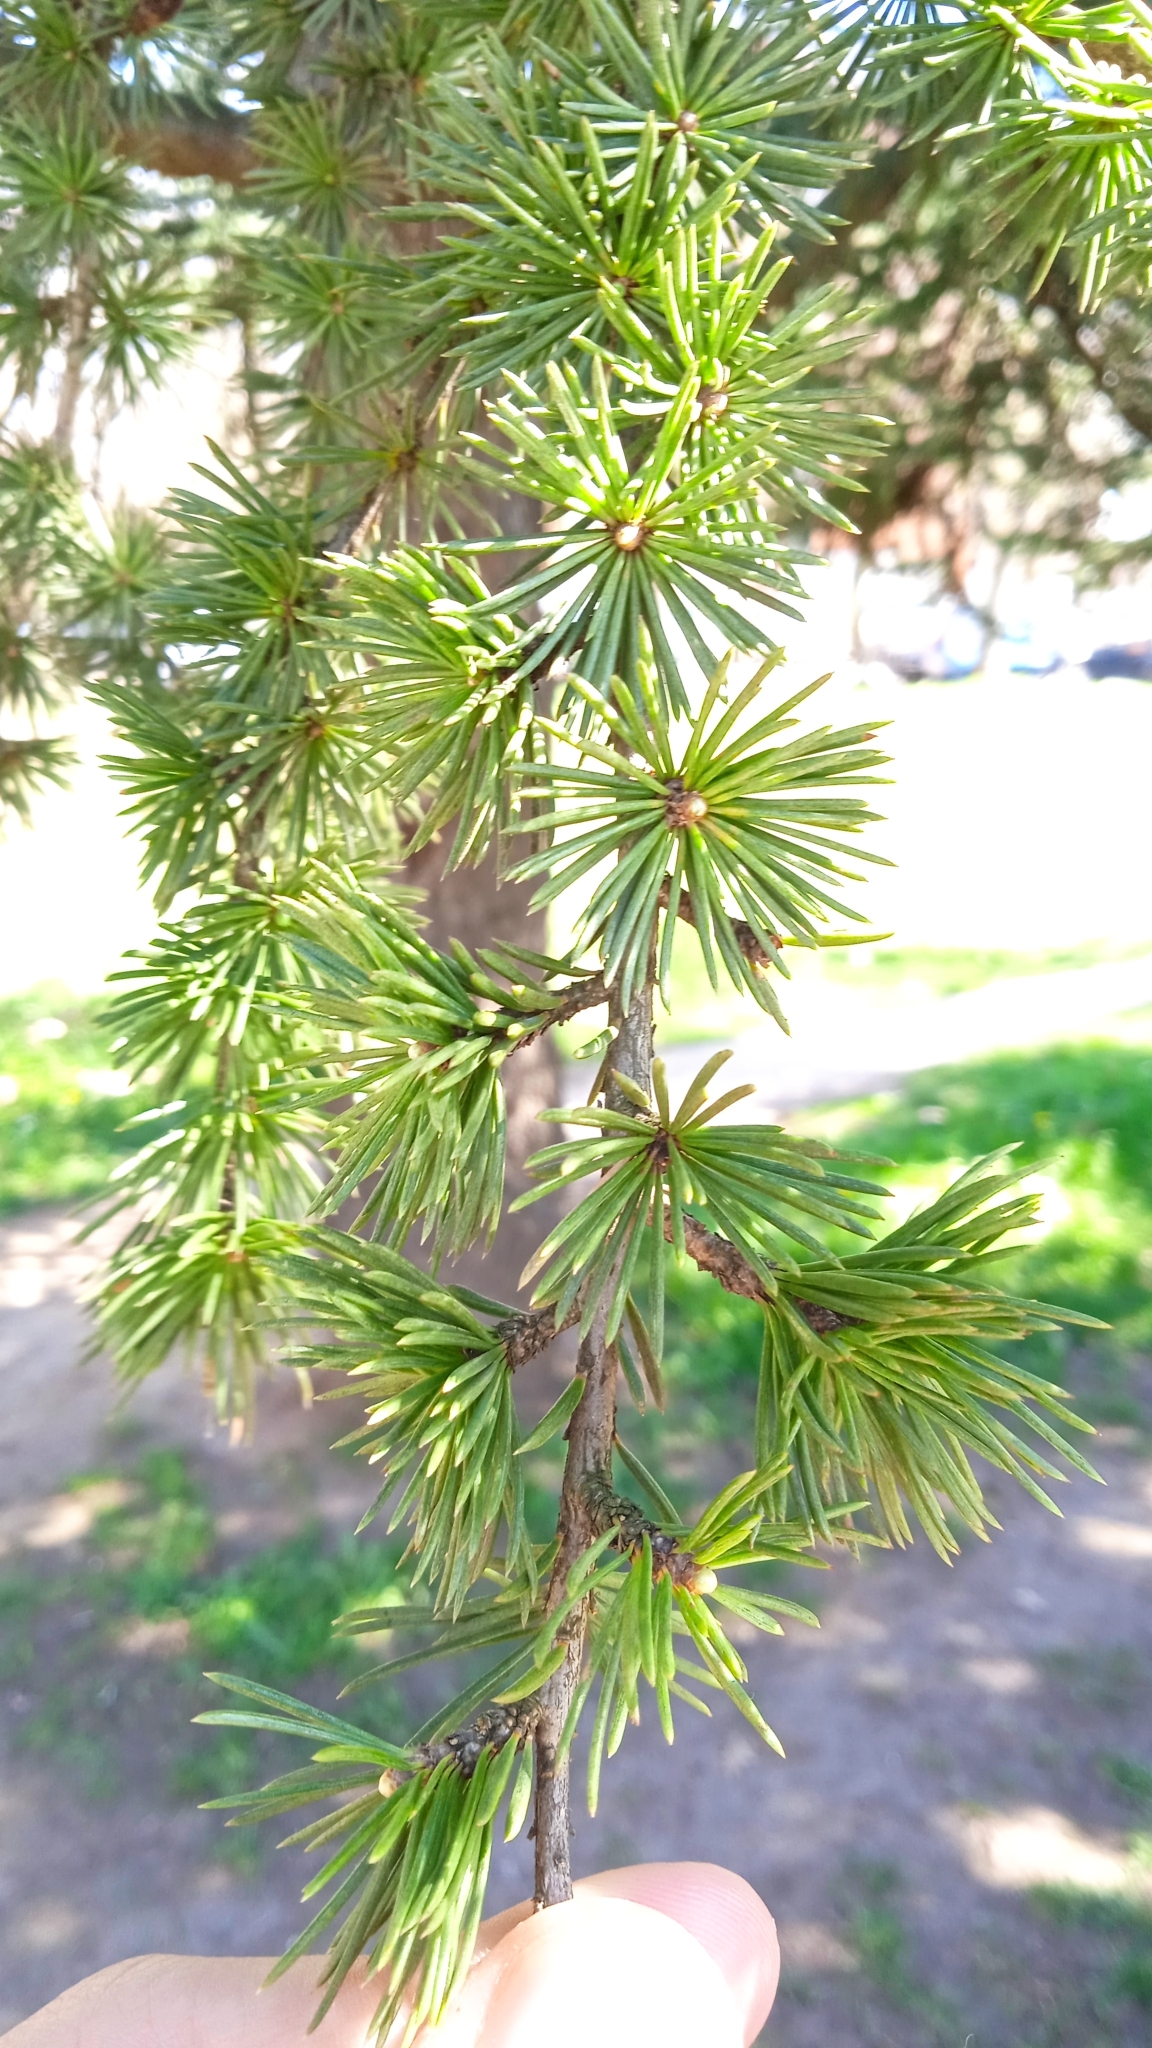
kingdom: Plantae
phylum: Tracheophyta
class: Pinopsida
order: Pinales
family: Pinaceae
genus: Cedrus
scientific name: Cedrus libani
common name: Cedar-of-lebanon
